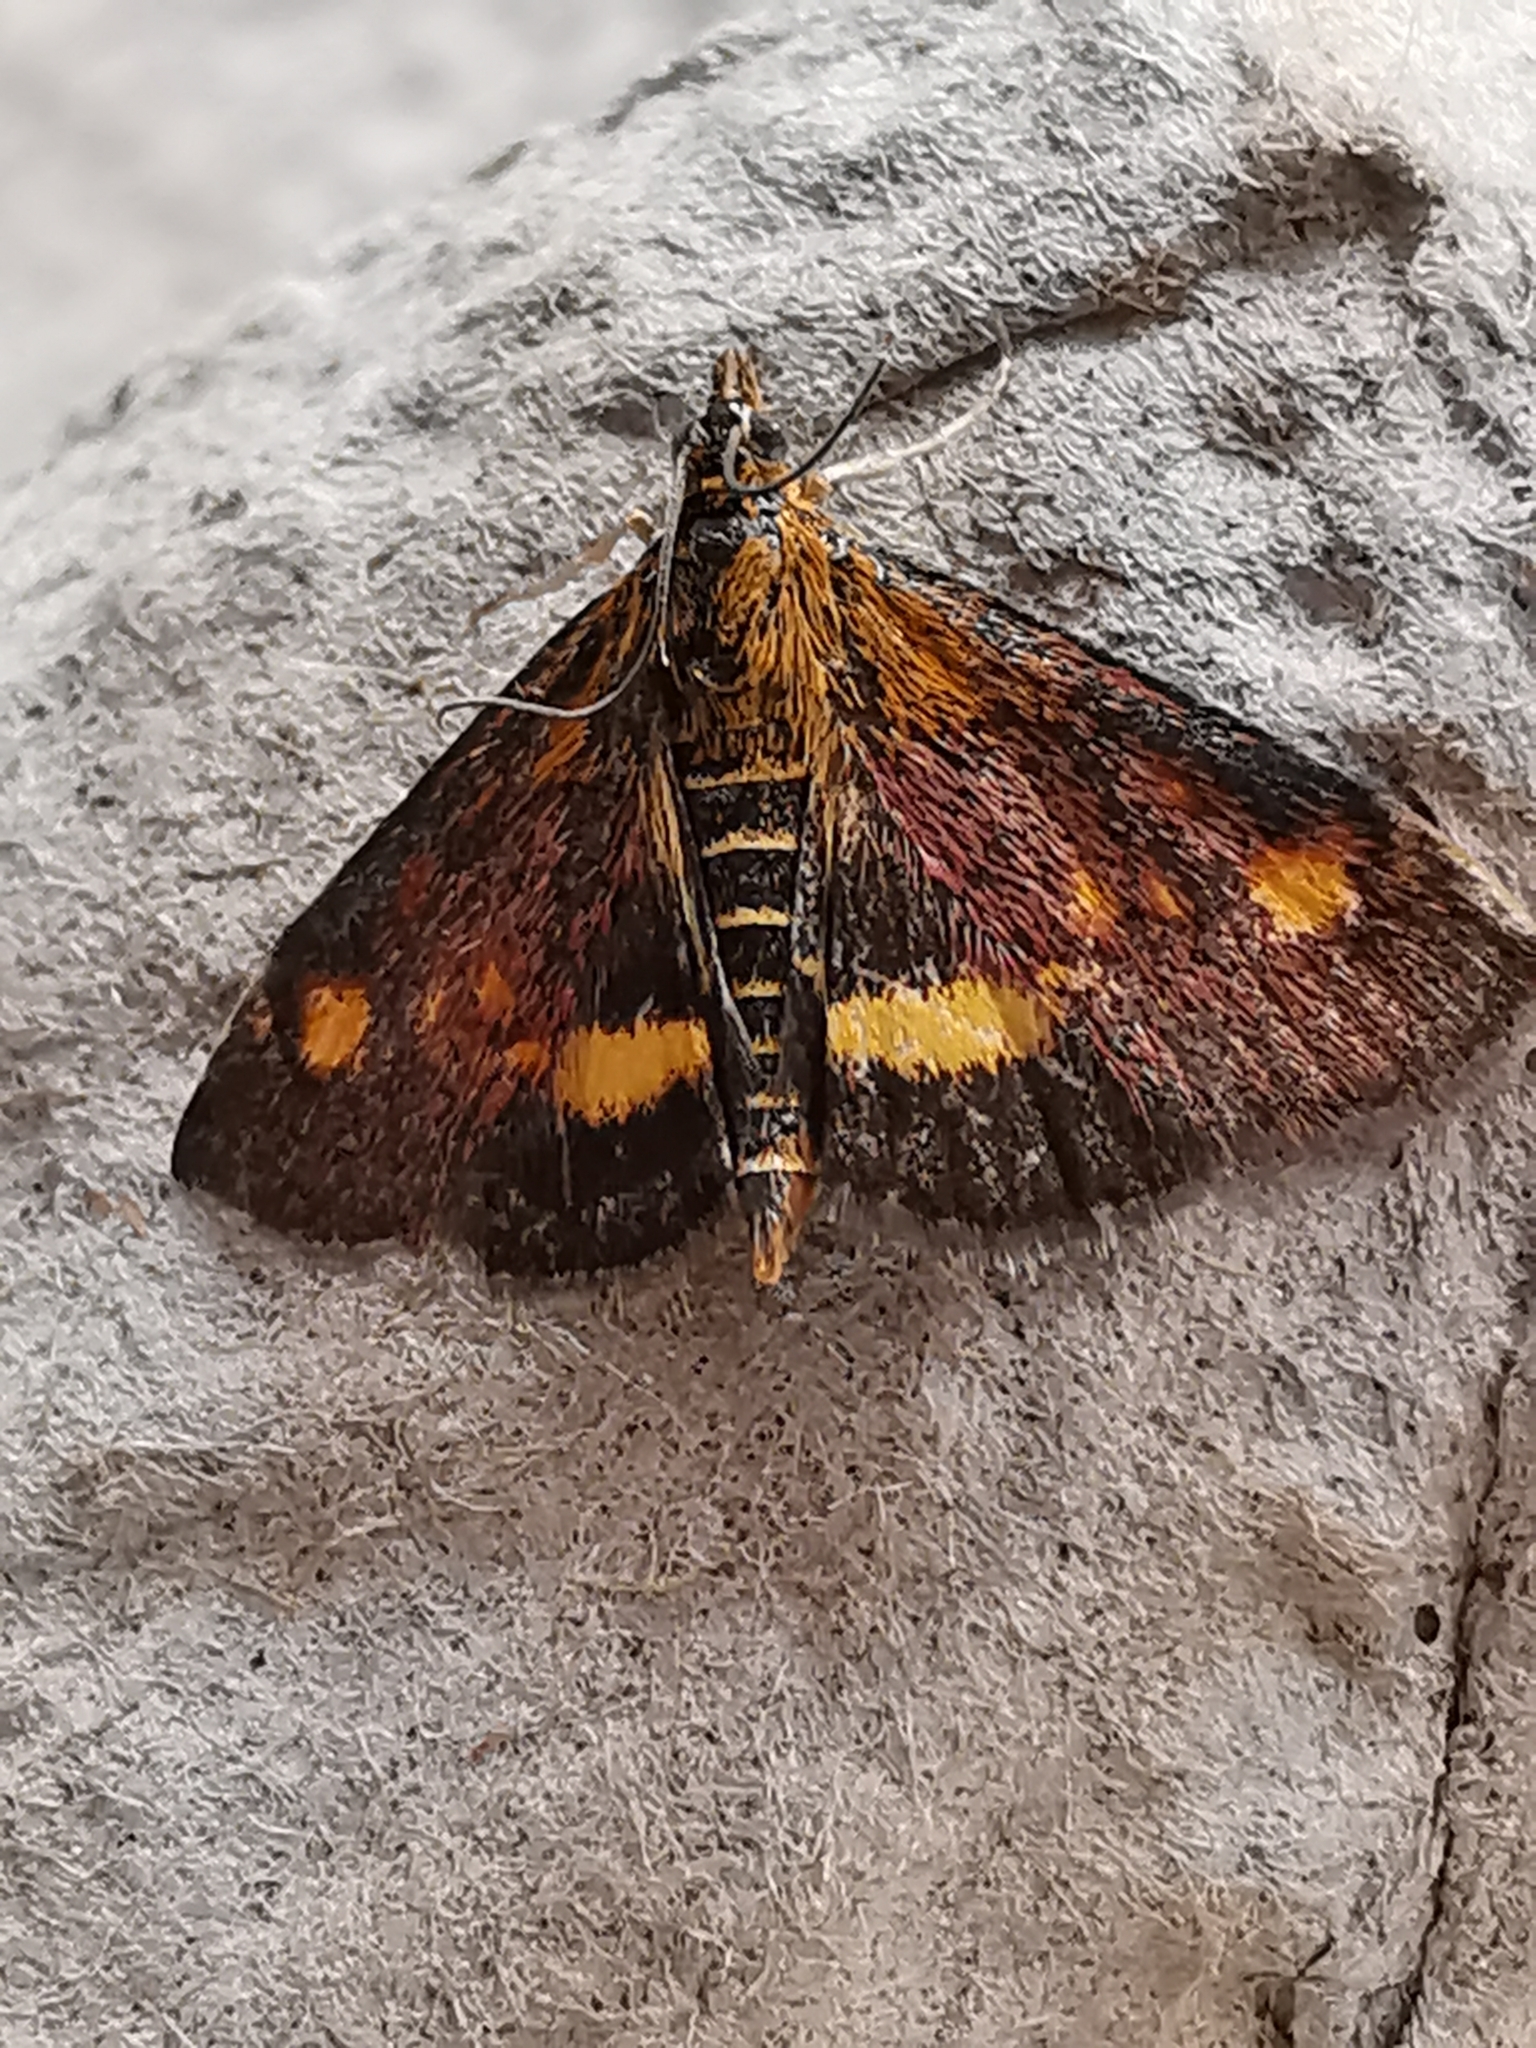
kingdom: Animalia
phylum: Arthropoda
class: Insecta
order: Lepidoptera
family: Crambidae
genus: Pyrausta
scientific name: Pyrausta aurata
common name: Small purple & gold
